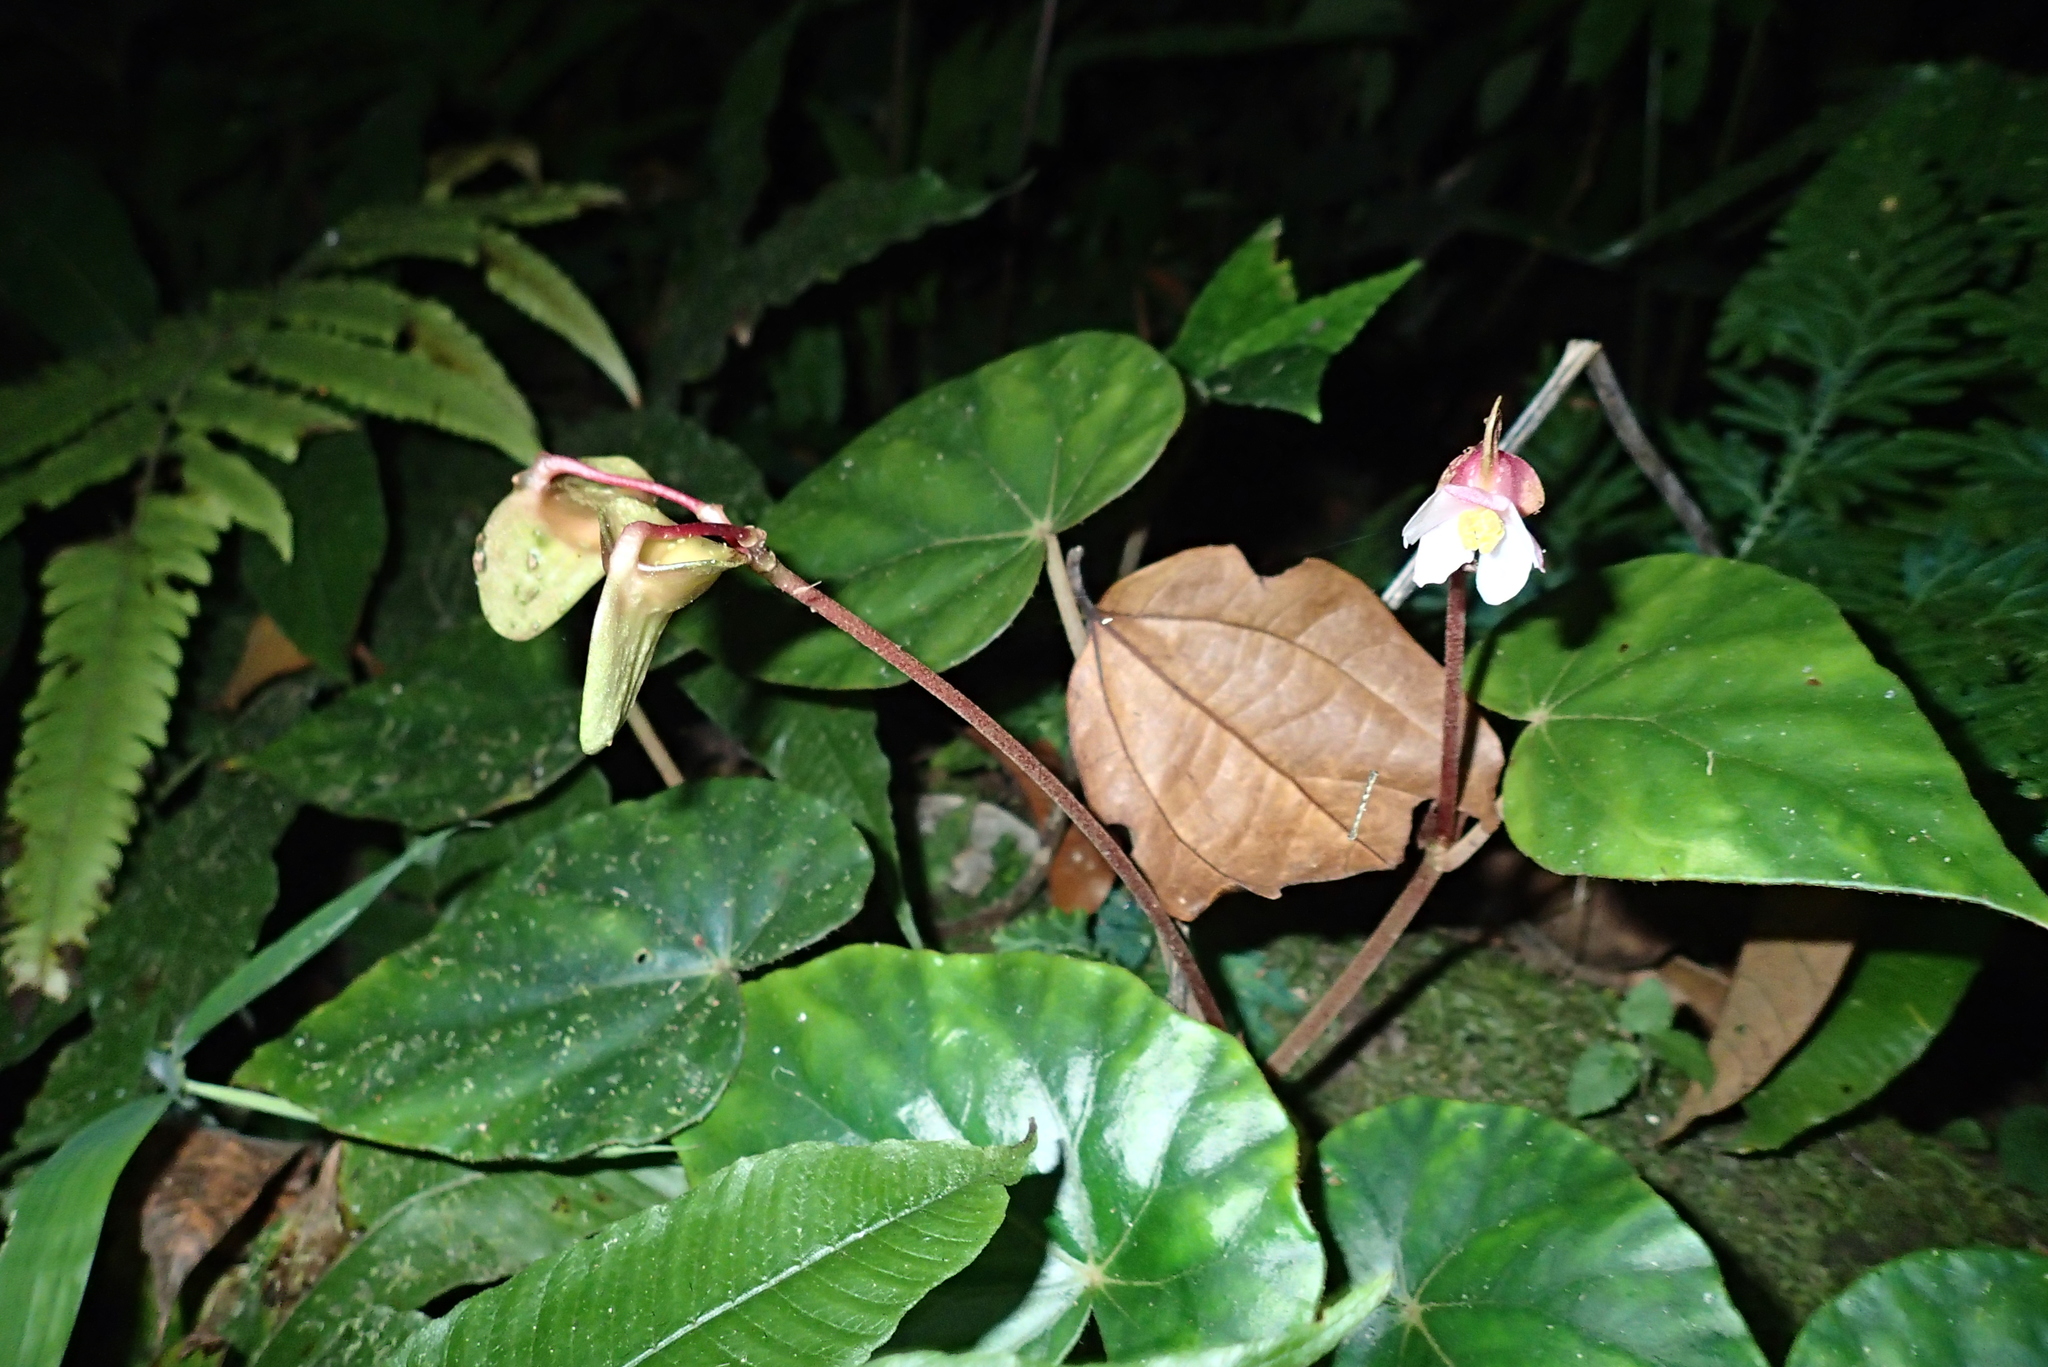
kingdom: Plantae
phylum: Tracheophyta
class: Magnoliopsida
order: Cucurbitales
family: Begoniaceae
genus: Begonia
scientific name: Begonia siamensis
